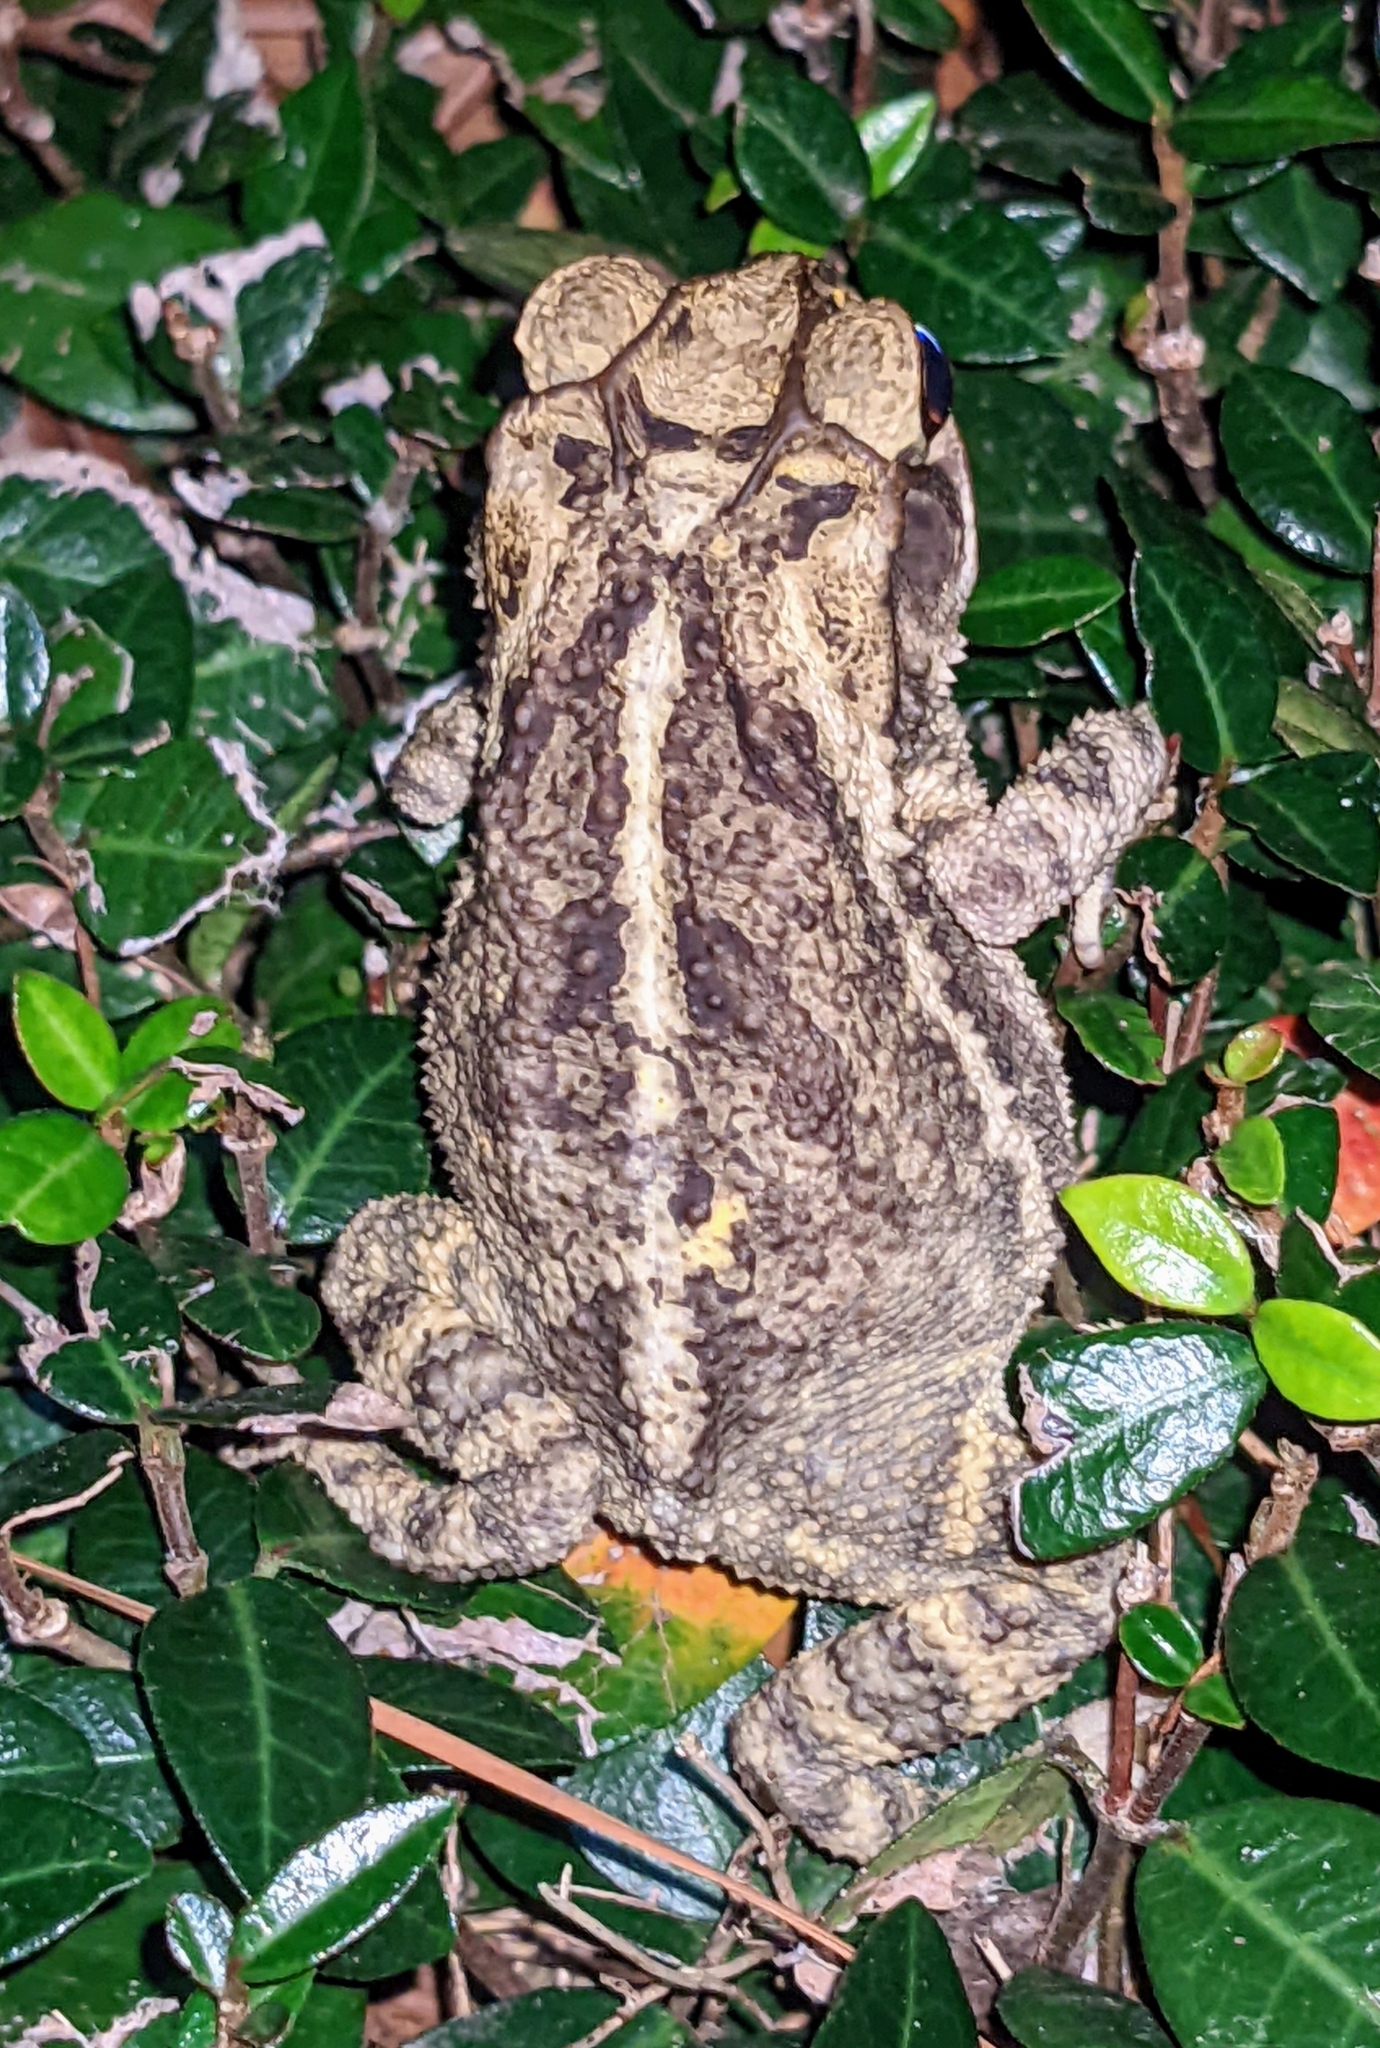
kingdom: Animalia
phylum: Chordata
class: Amphibia
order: Anura
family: Bufonidae
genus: Incilius
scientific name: Incilius nebulifer
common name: Gulf coast toad
